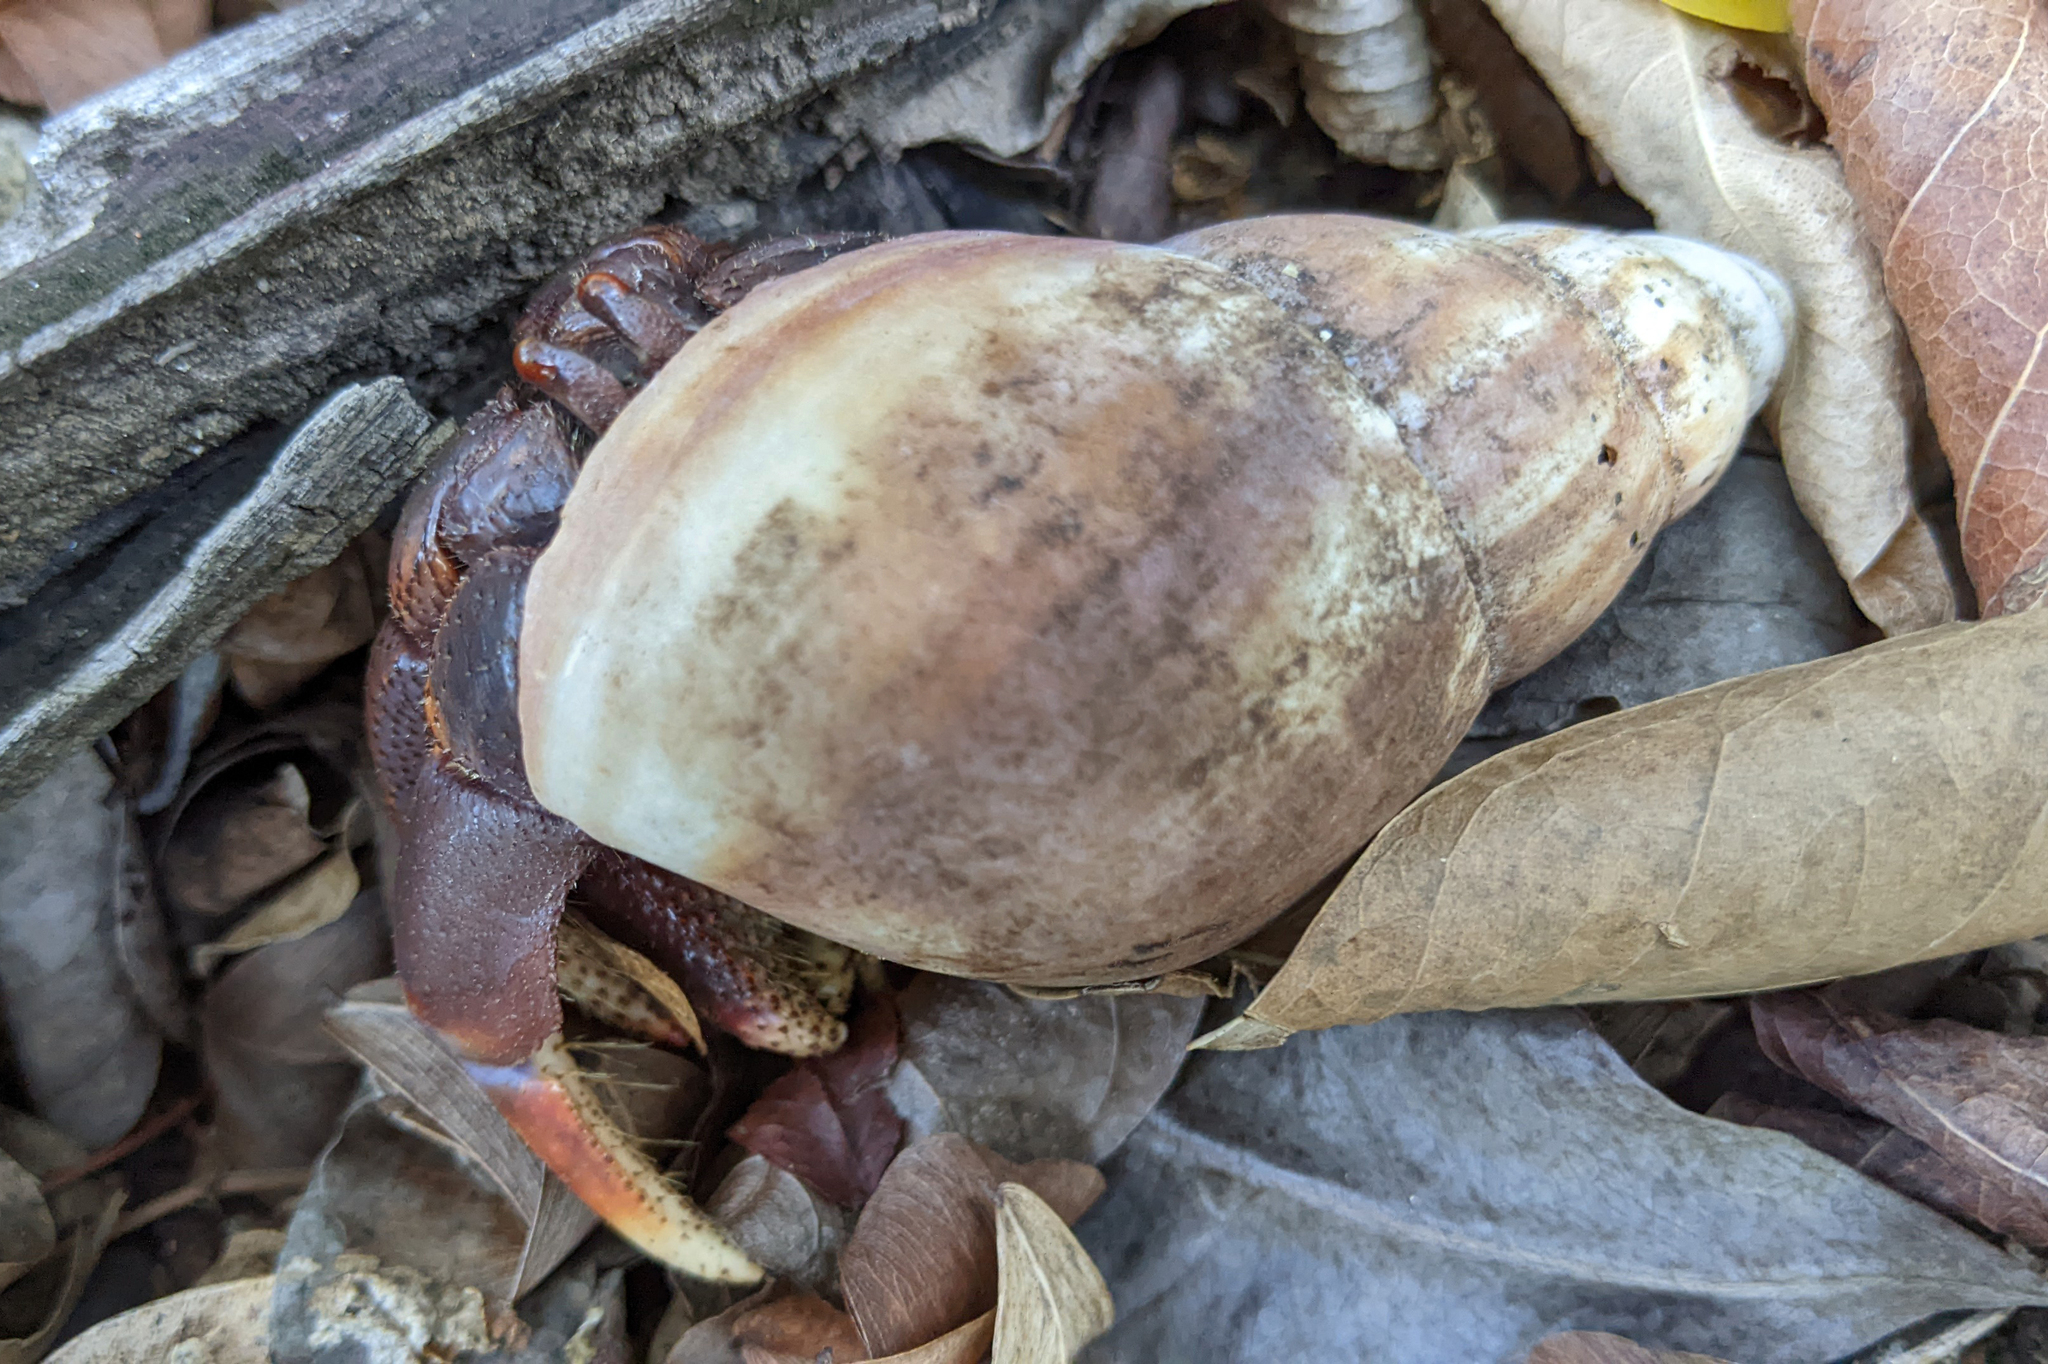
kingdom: Animalia
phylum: Mollusca
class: Gastropoda
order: Stylommatophora
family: Achatinidae
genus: Lissachatina
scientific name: Lissachatina fulica
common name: Giant african snail
